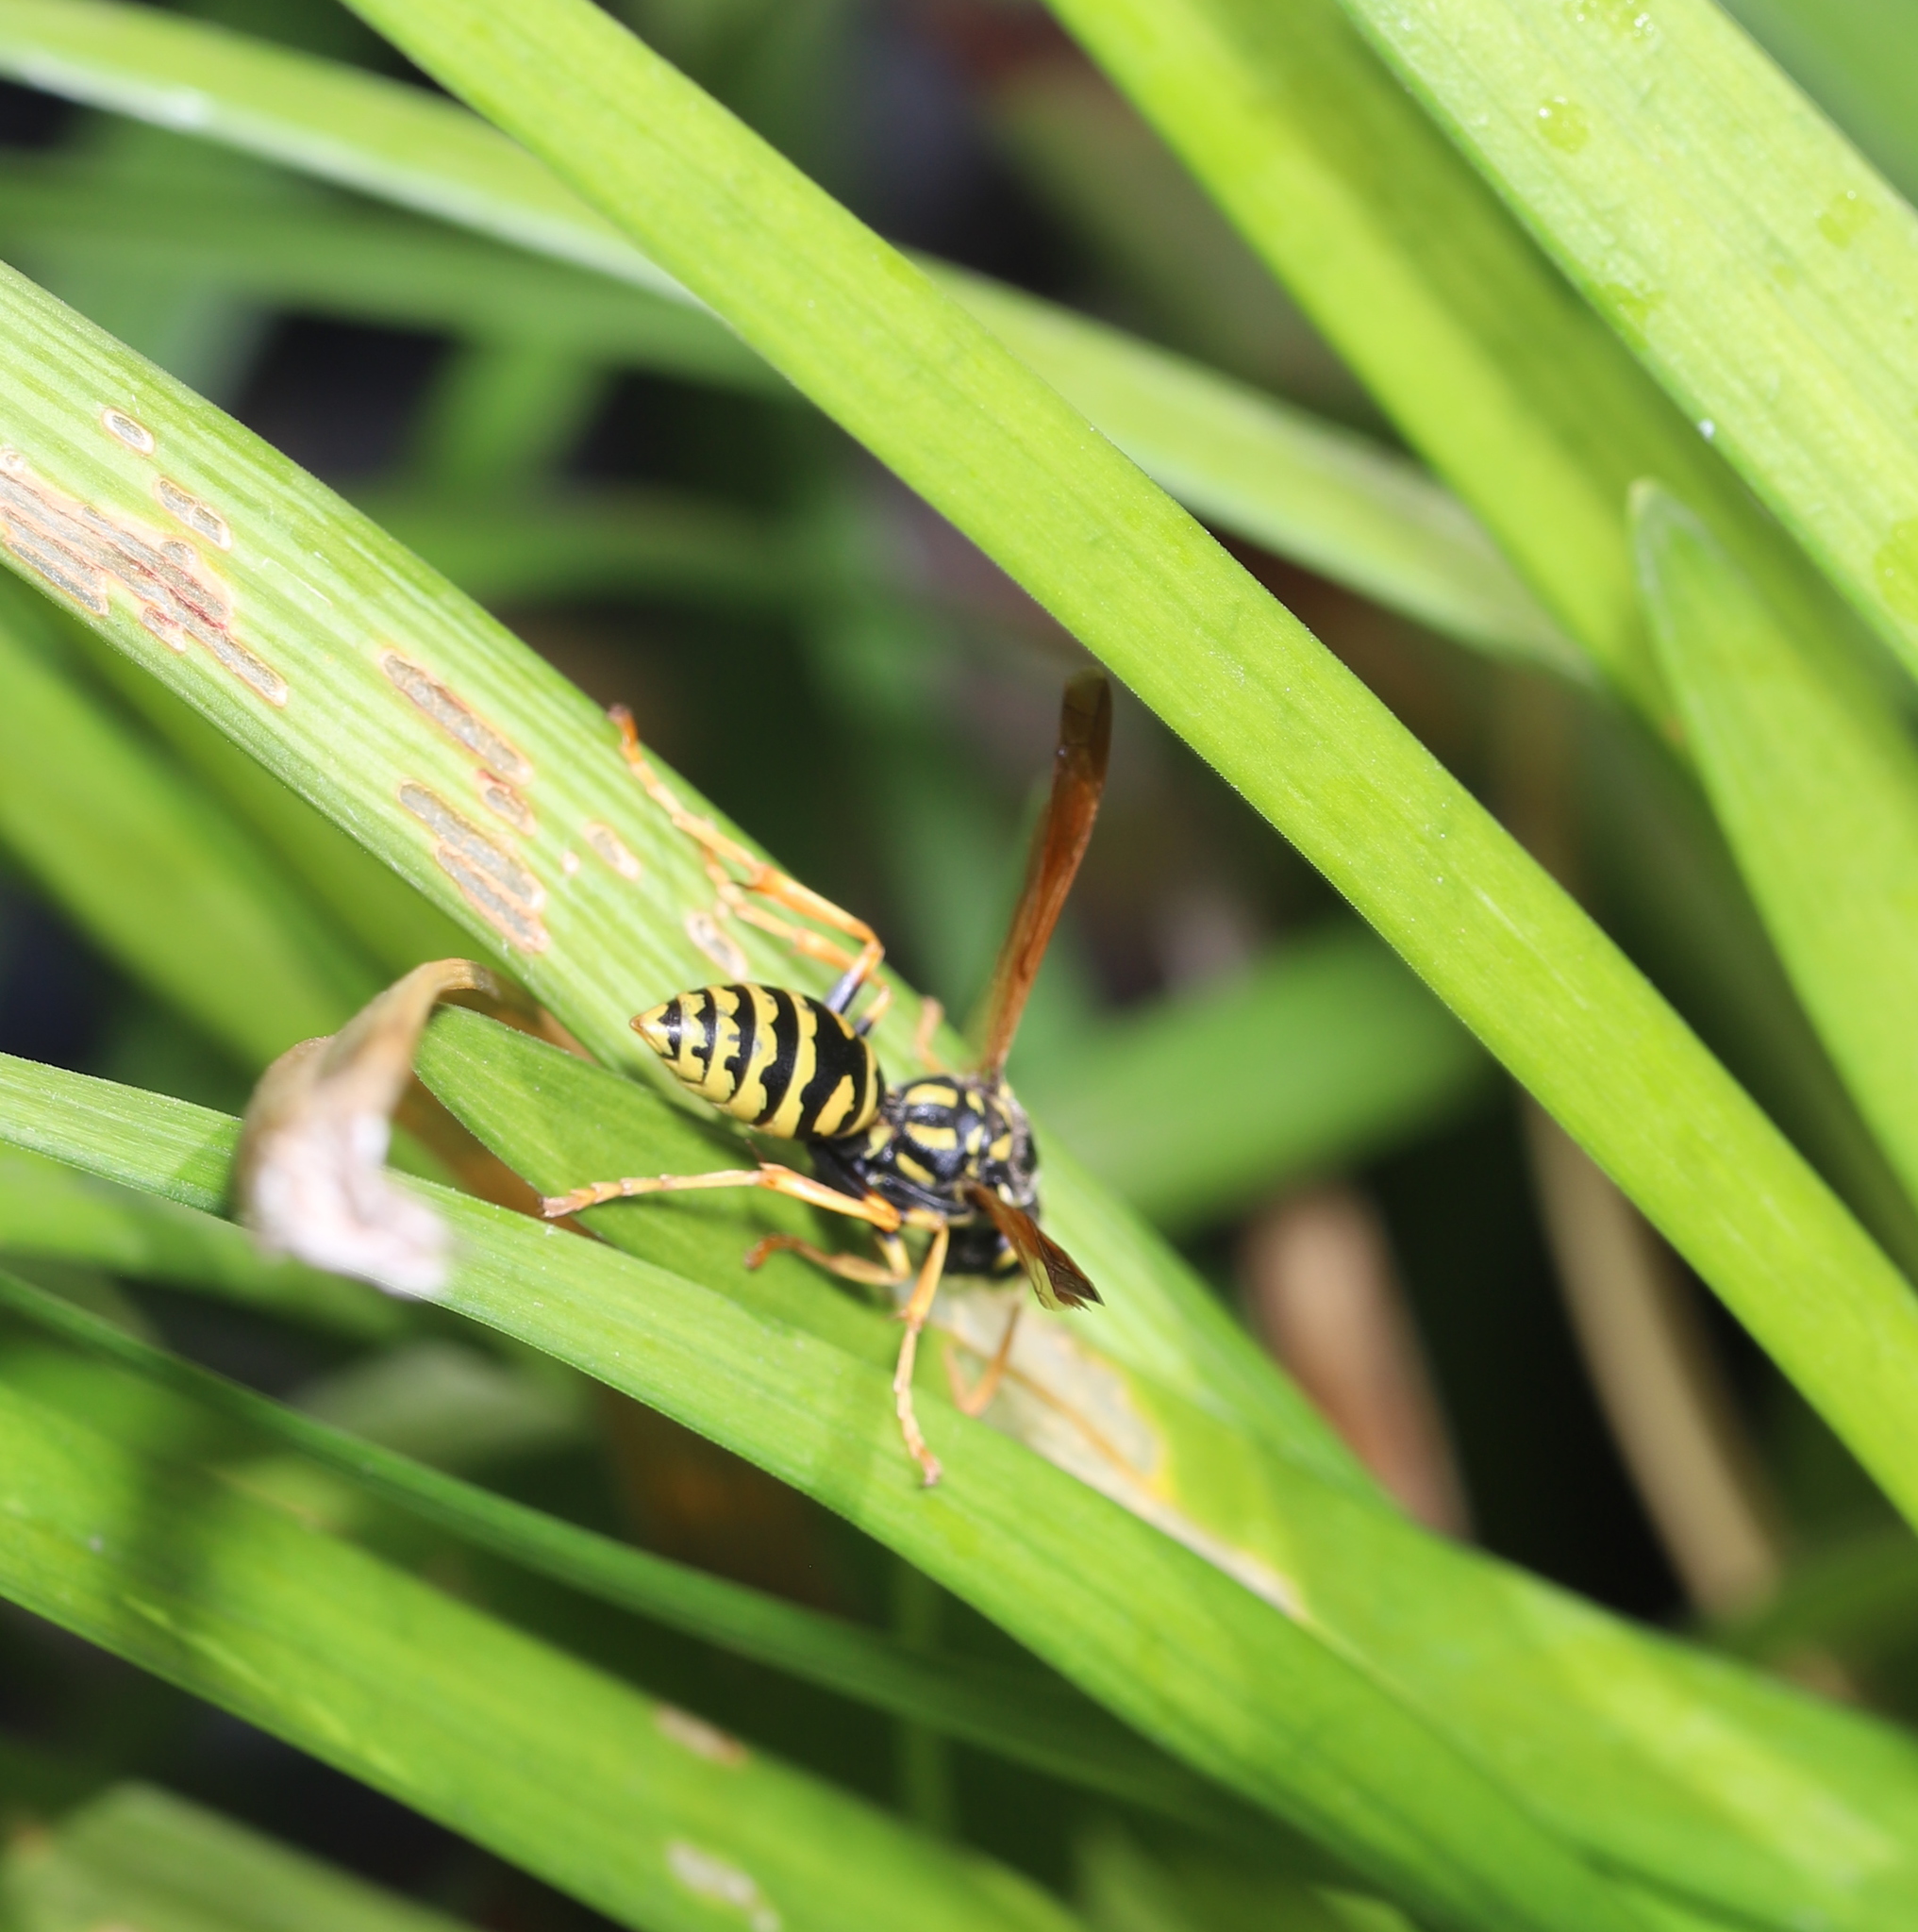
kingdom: Animalia
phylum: Arthropoda
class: Insecta
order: Hymenoptera
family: Eumenidae
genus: Polistes
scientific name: Polistes dominula
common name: Paper wasp
